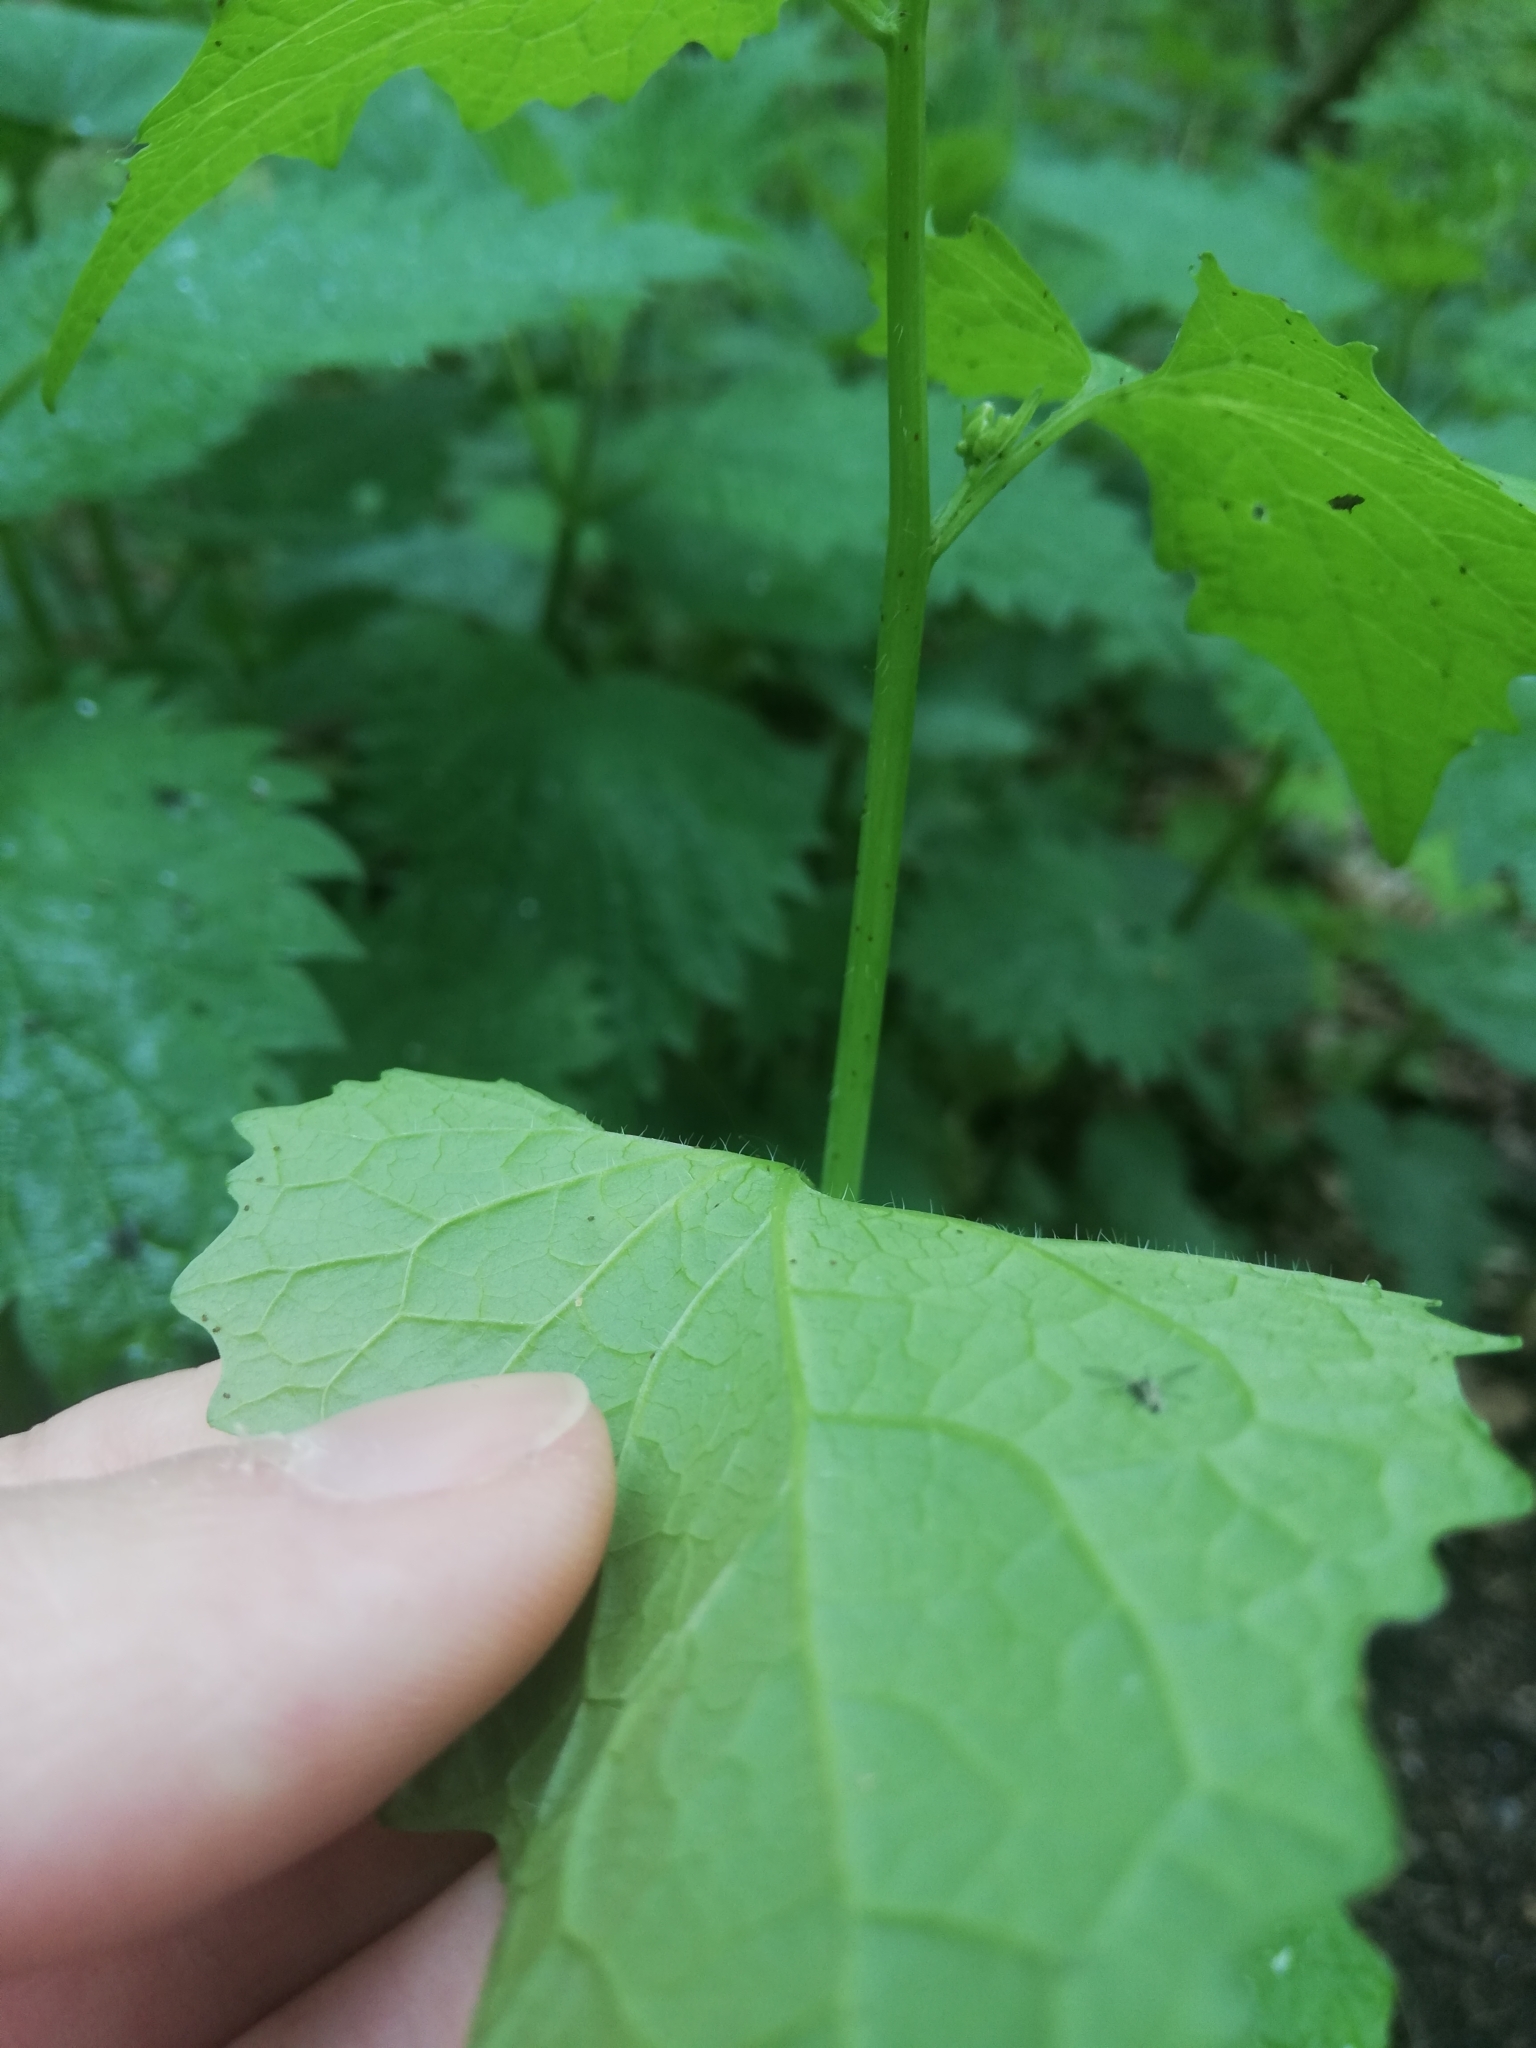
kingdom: Plantae
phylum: Tracheophyta
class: Magnoliopsida
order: Brassicales
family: Brassicaceae
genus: Alliaria
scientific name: Alliaria petiolata
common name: Garlic mustard
